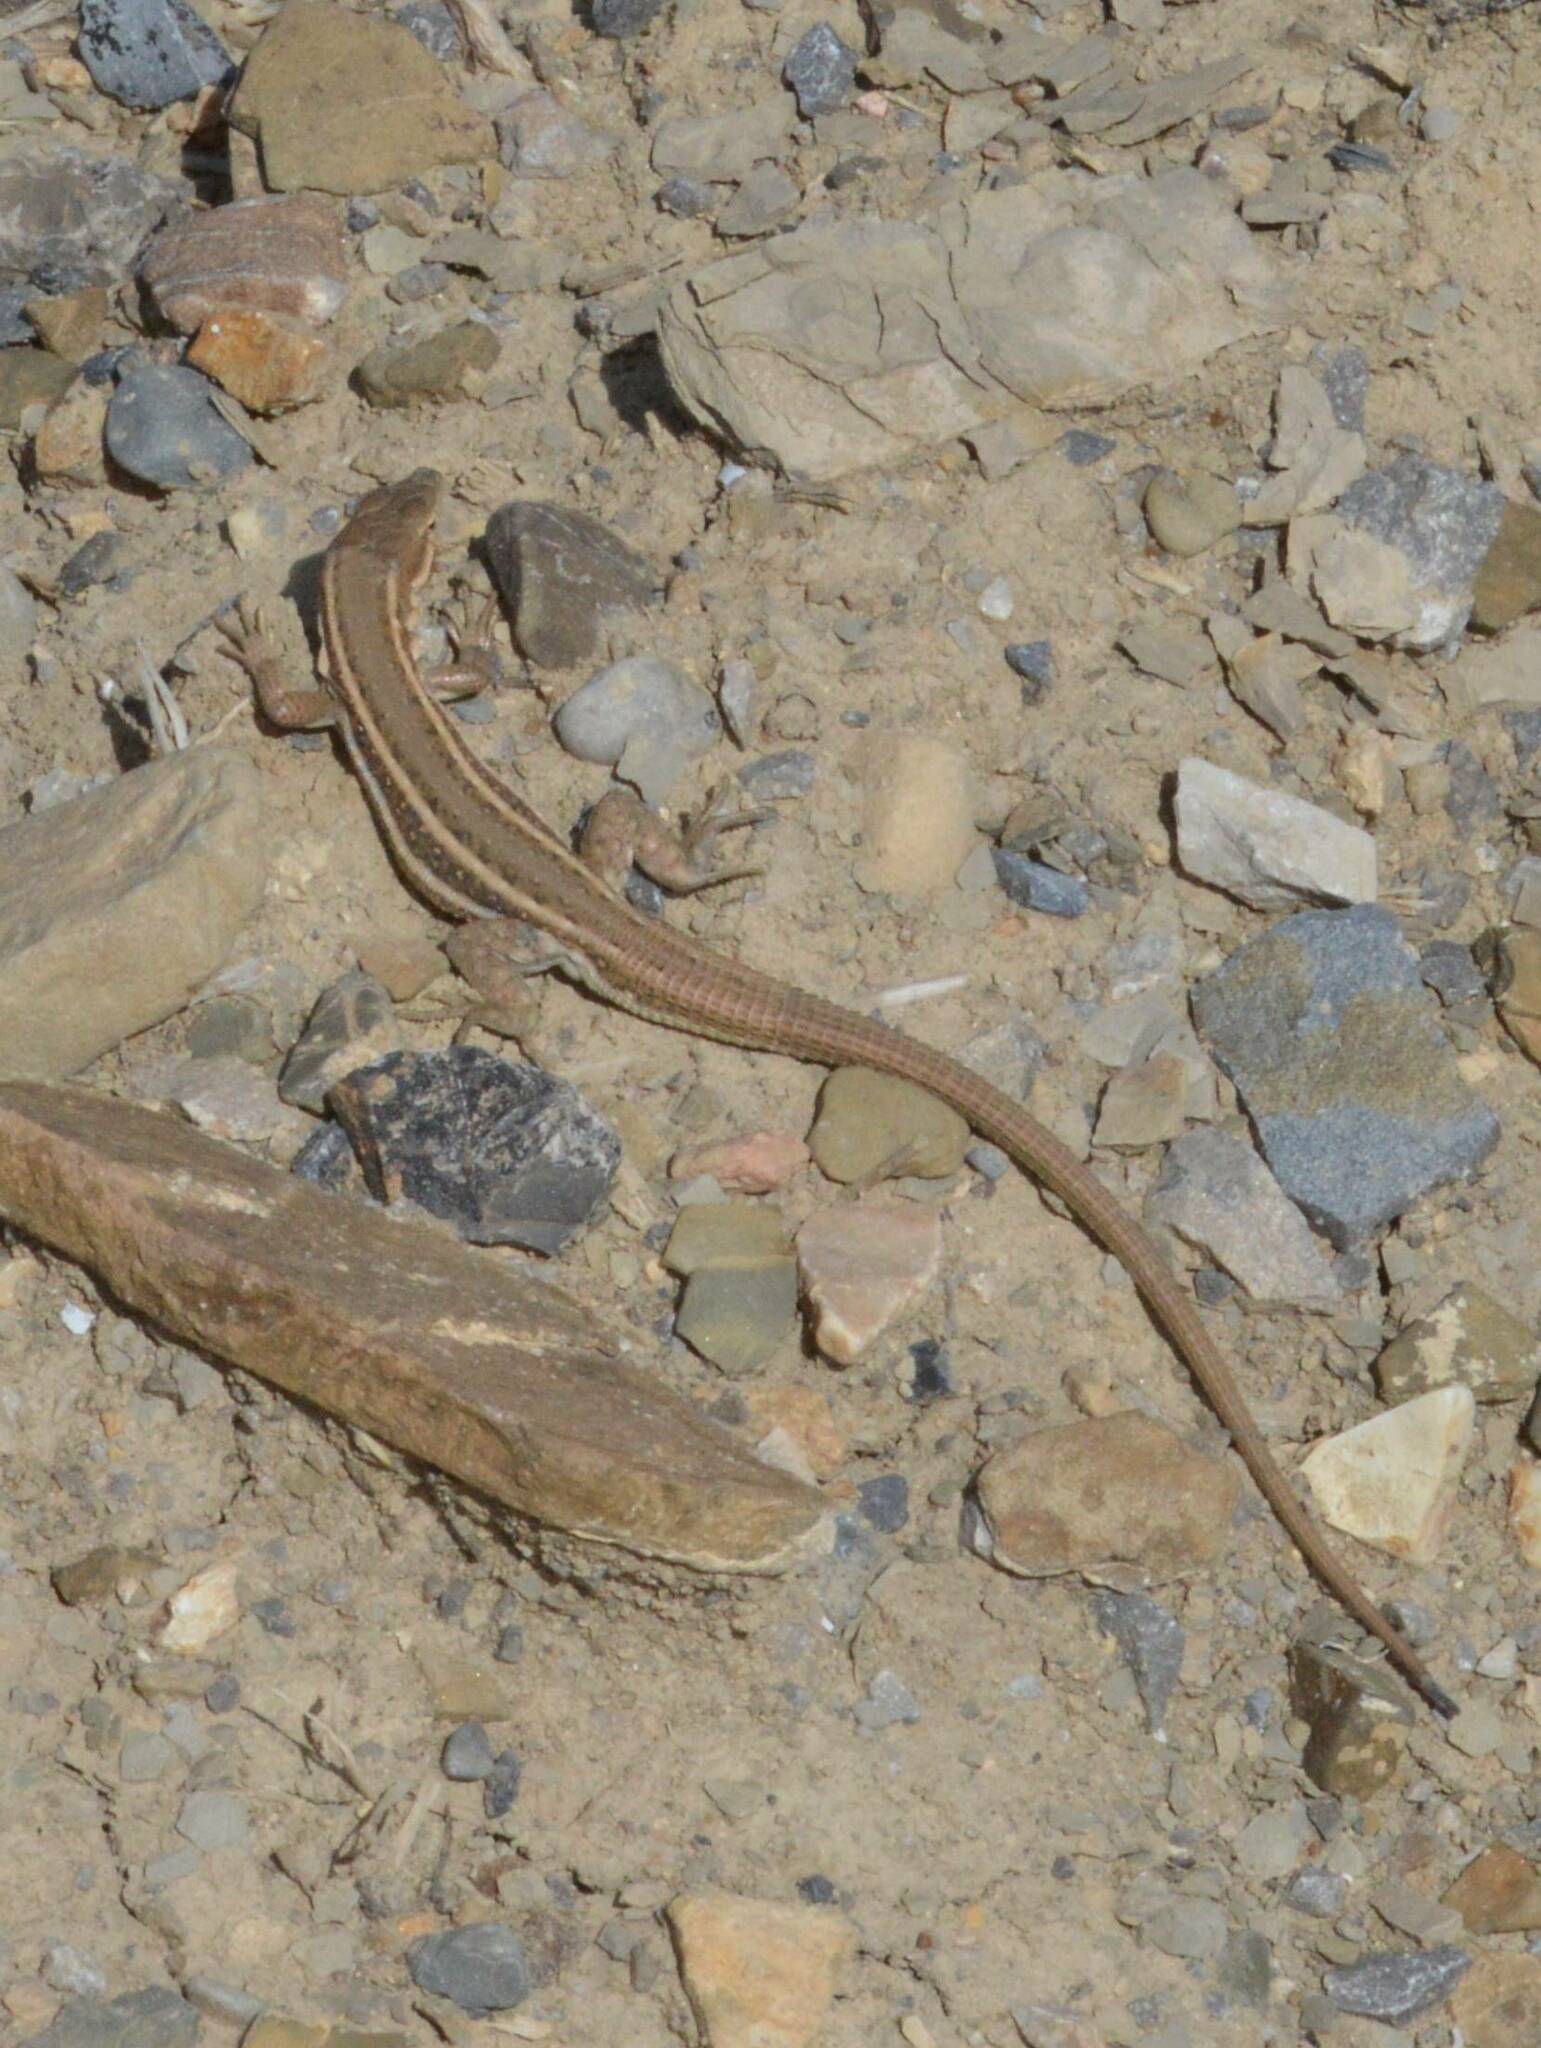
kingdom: Animalia
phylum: Chordata
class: Squamata
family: Lacertidae
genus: Mesalina
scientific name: Mesalina olivieri
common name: Oliver's desert racer
